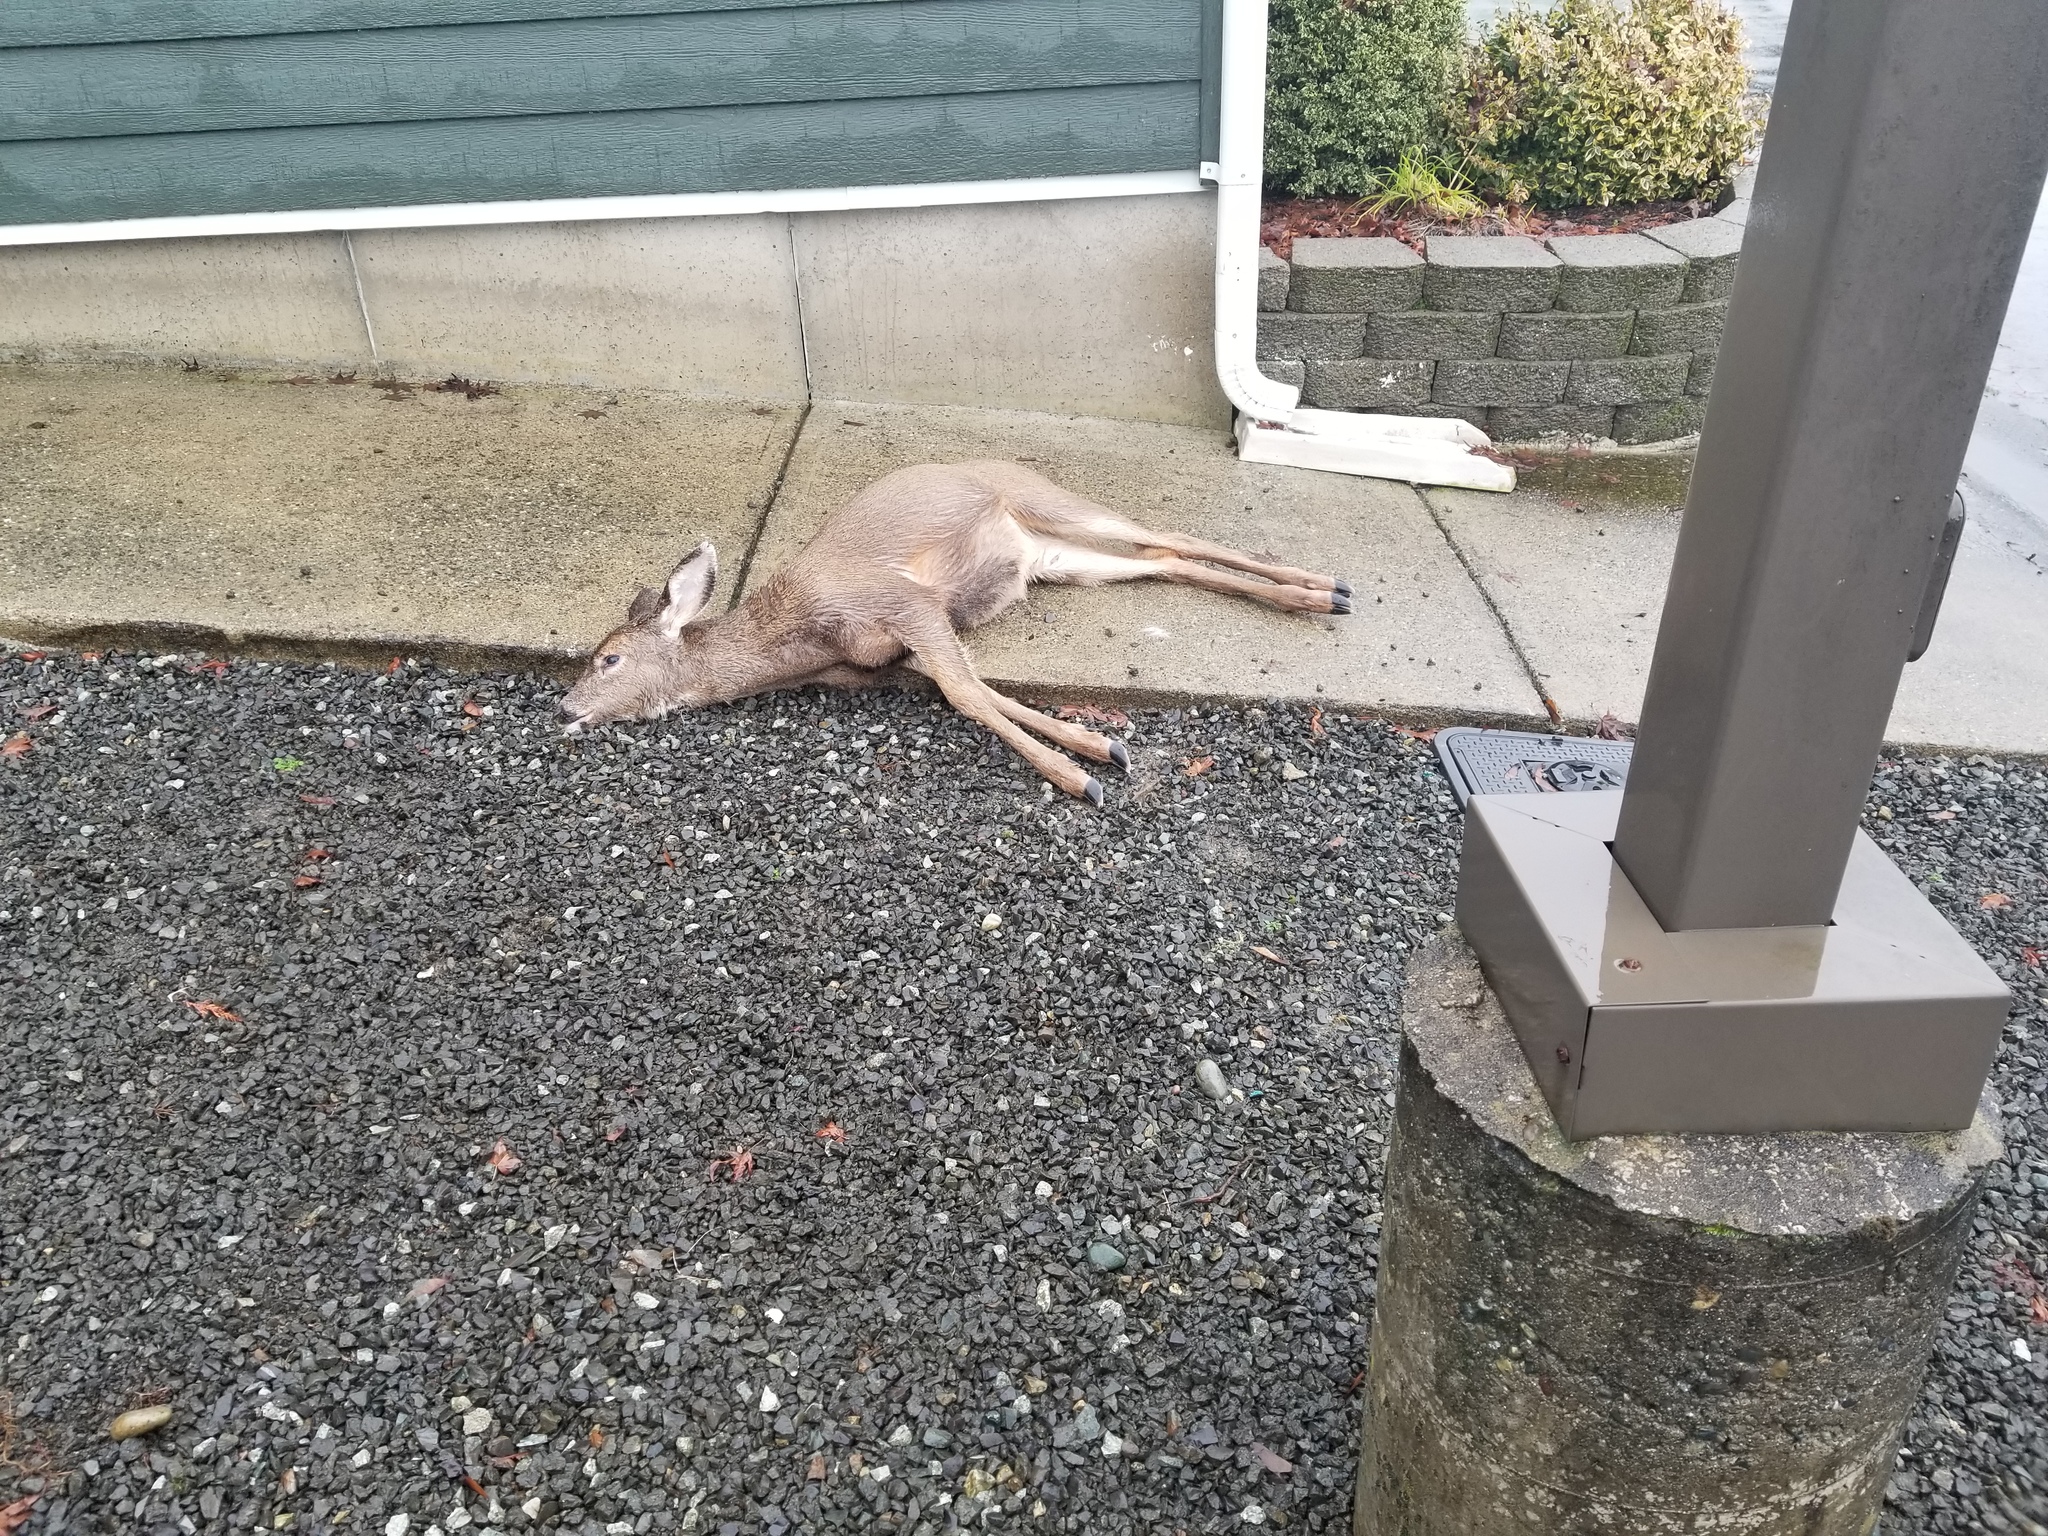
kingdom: Animalia
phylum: Chordata
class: Mammalia
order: Artiodactyla
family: Cervidae
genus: Odocoileus
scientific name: Odocoileus hemionus
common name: Mule deer
